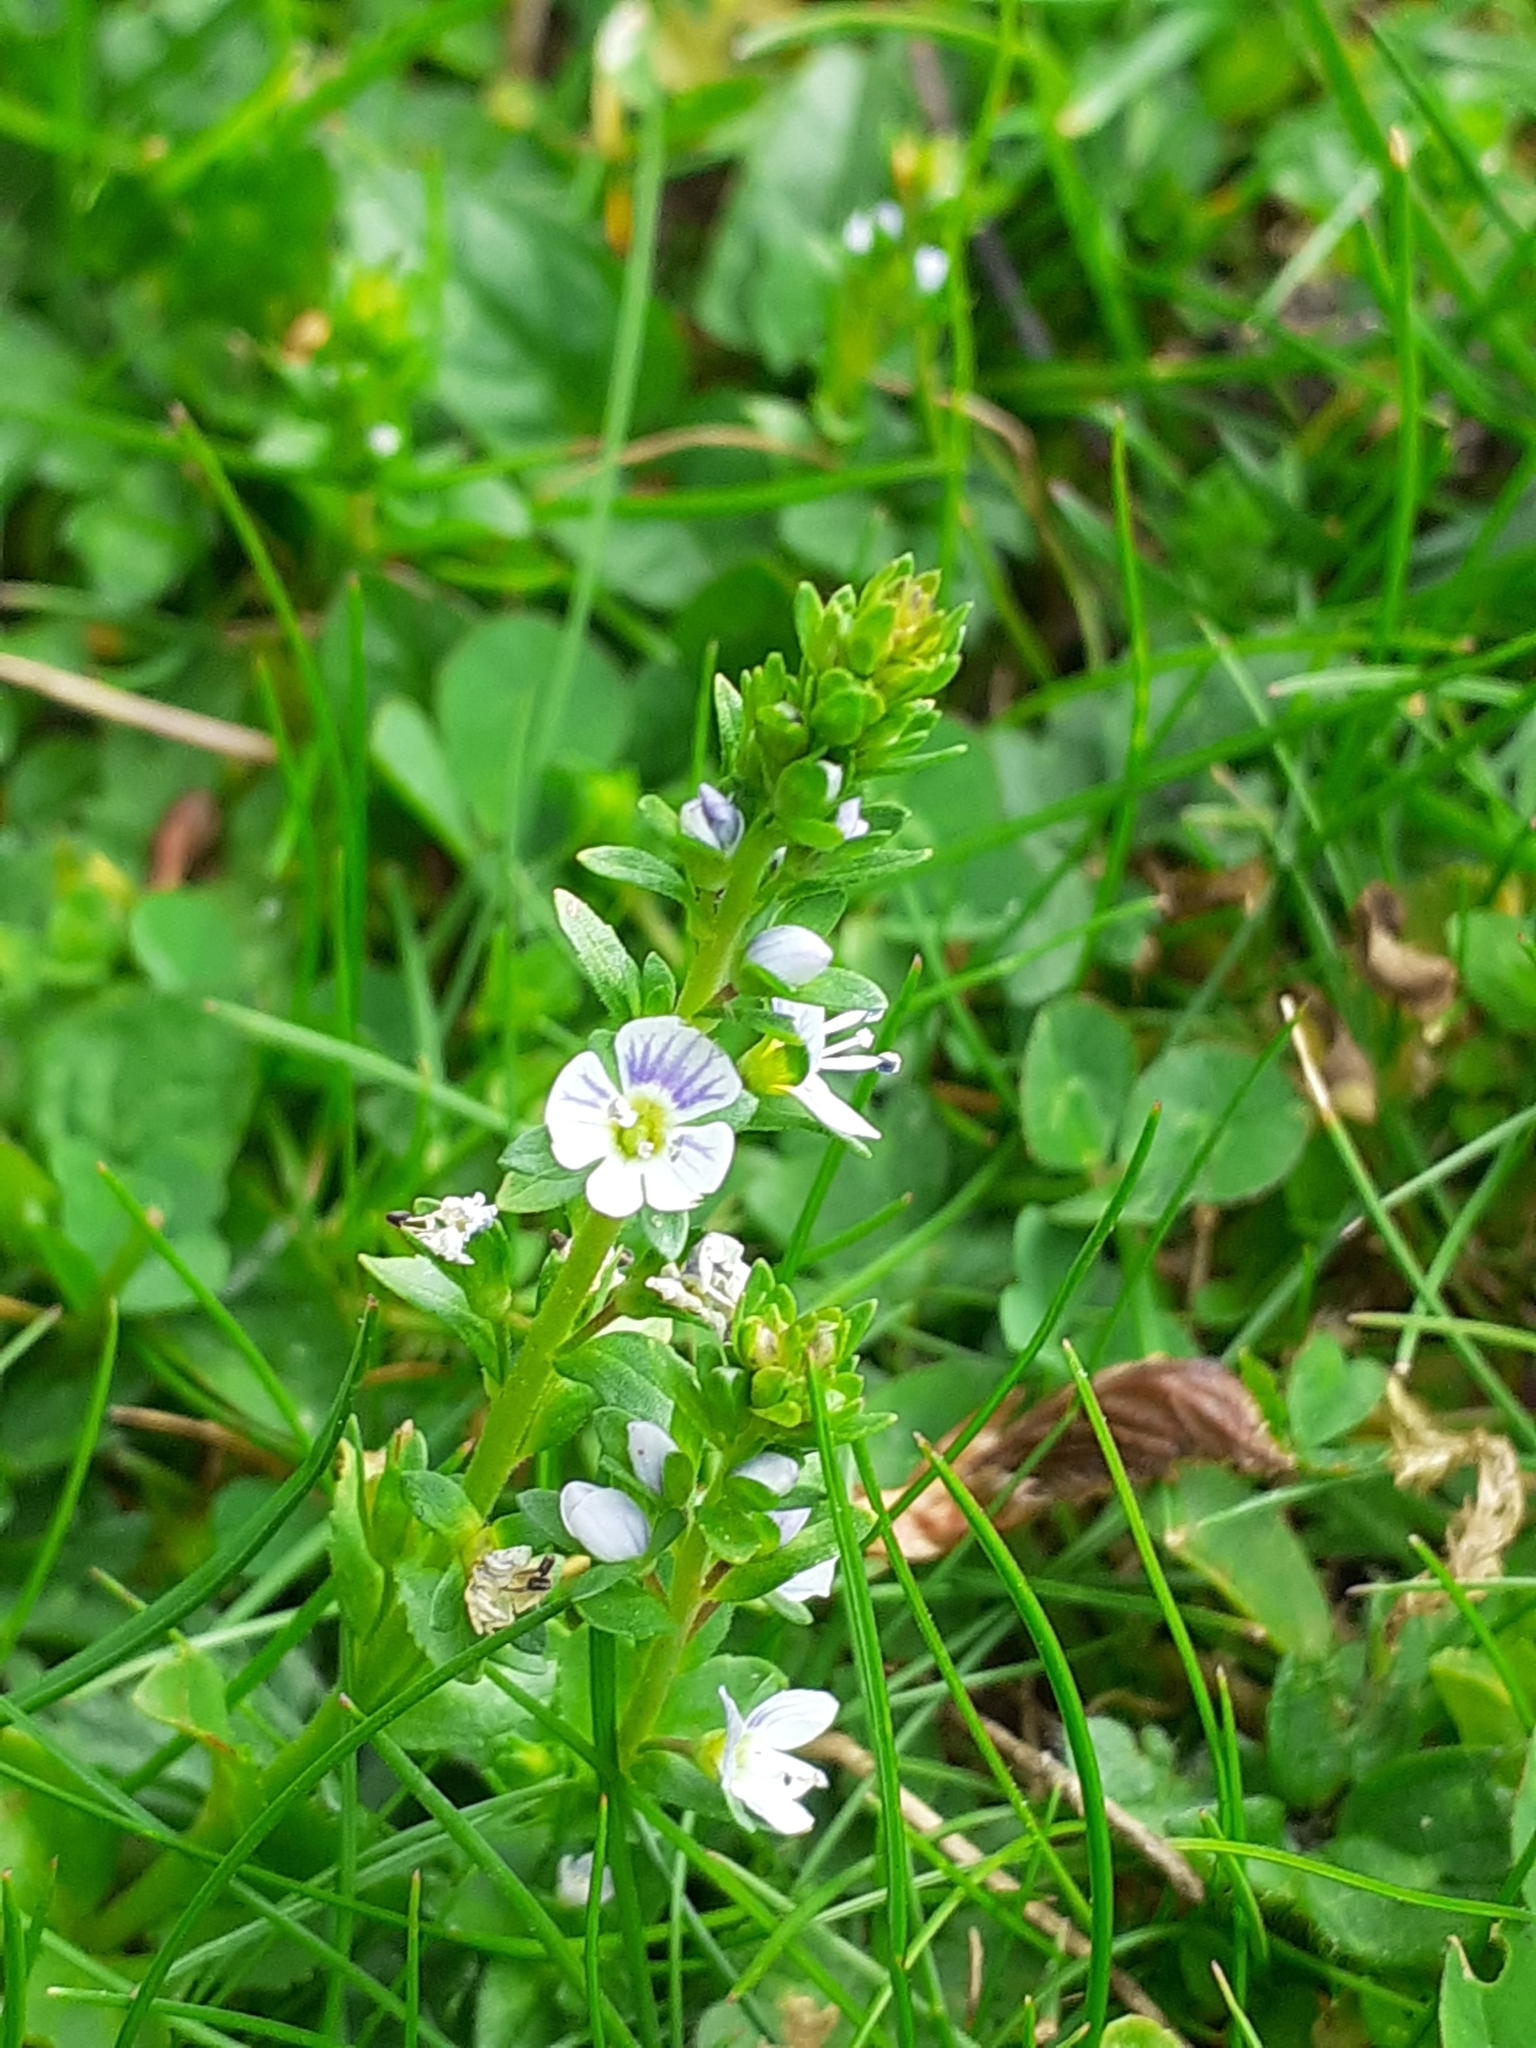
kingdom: Plantae
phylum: Tracheophyta
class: Magnoliopsida
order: Lamiales
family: Plantaginaceae
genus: Veronica
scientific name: Veronica serpyllifolia
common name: Thyme-leaved speedwell
